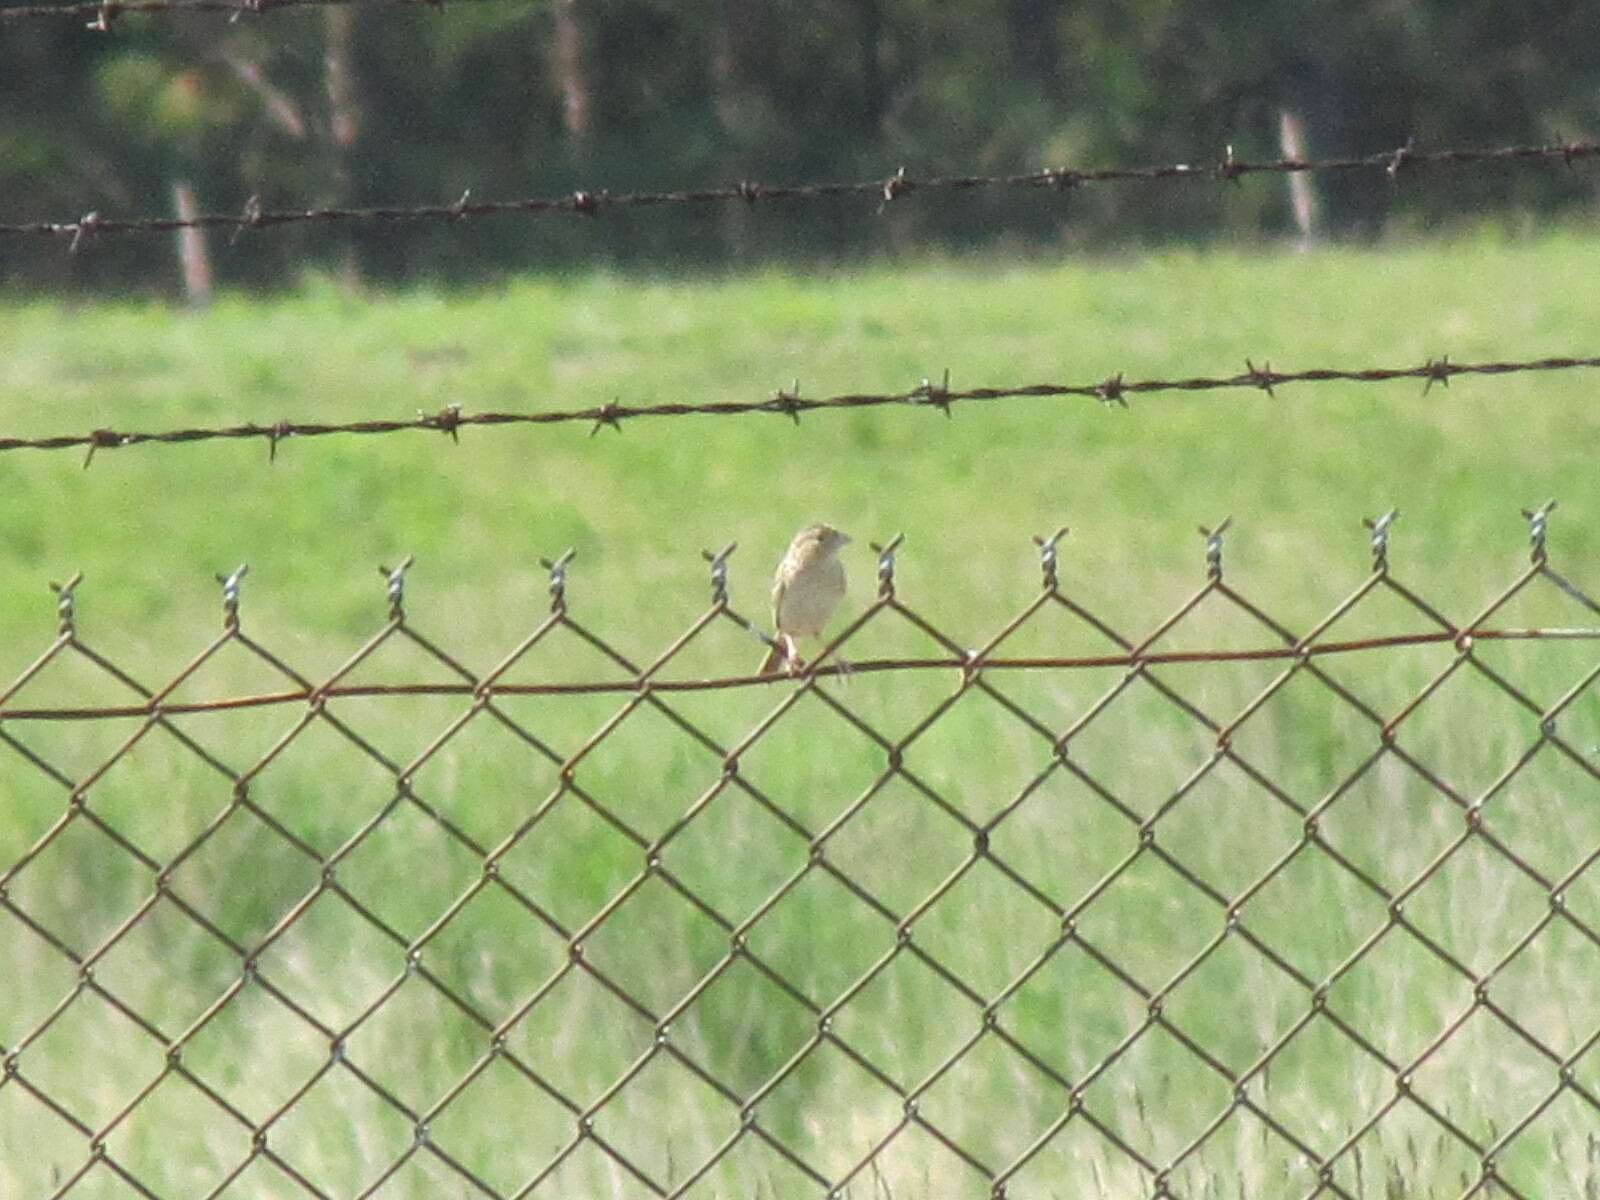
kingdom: Animalia
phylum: Chordata
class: Aves
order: Passeriformes
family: Passerellidae
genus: Ammodramus
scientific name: Ammodramus savannarum
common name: Grasshopper sparrow
